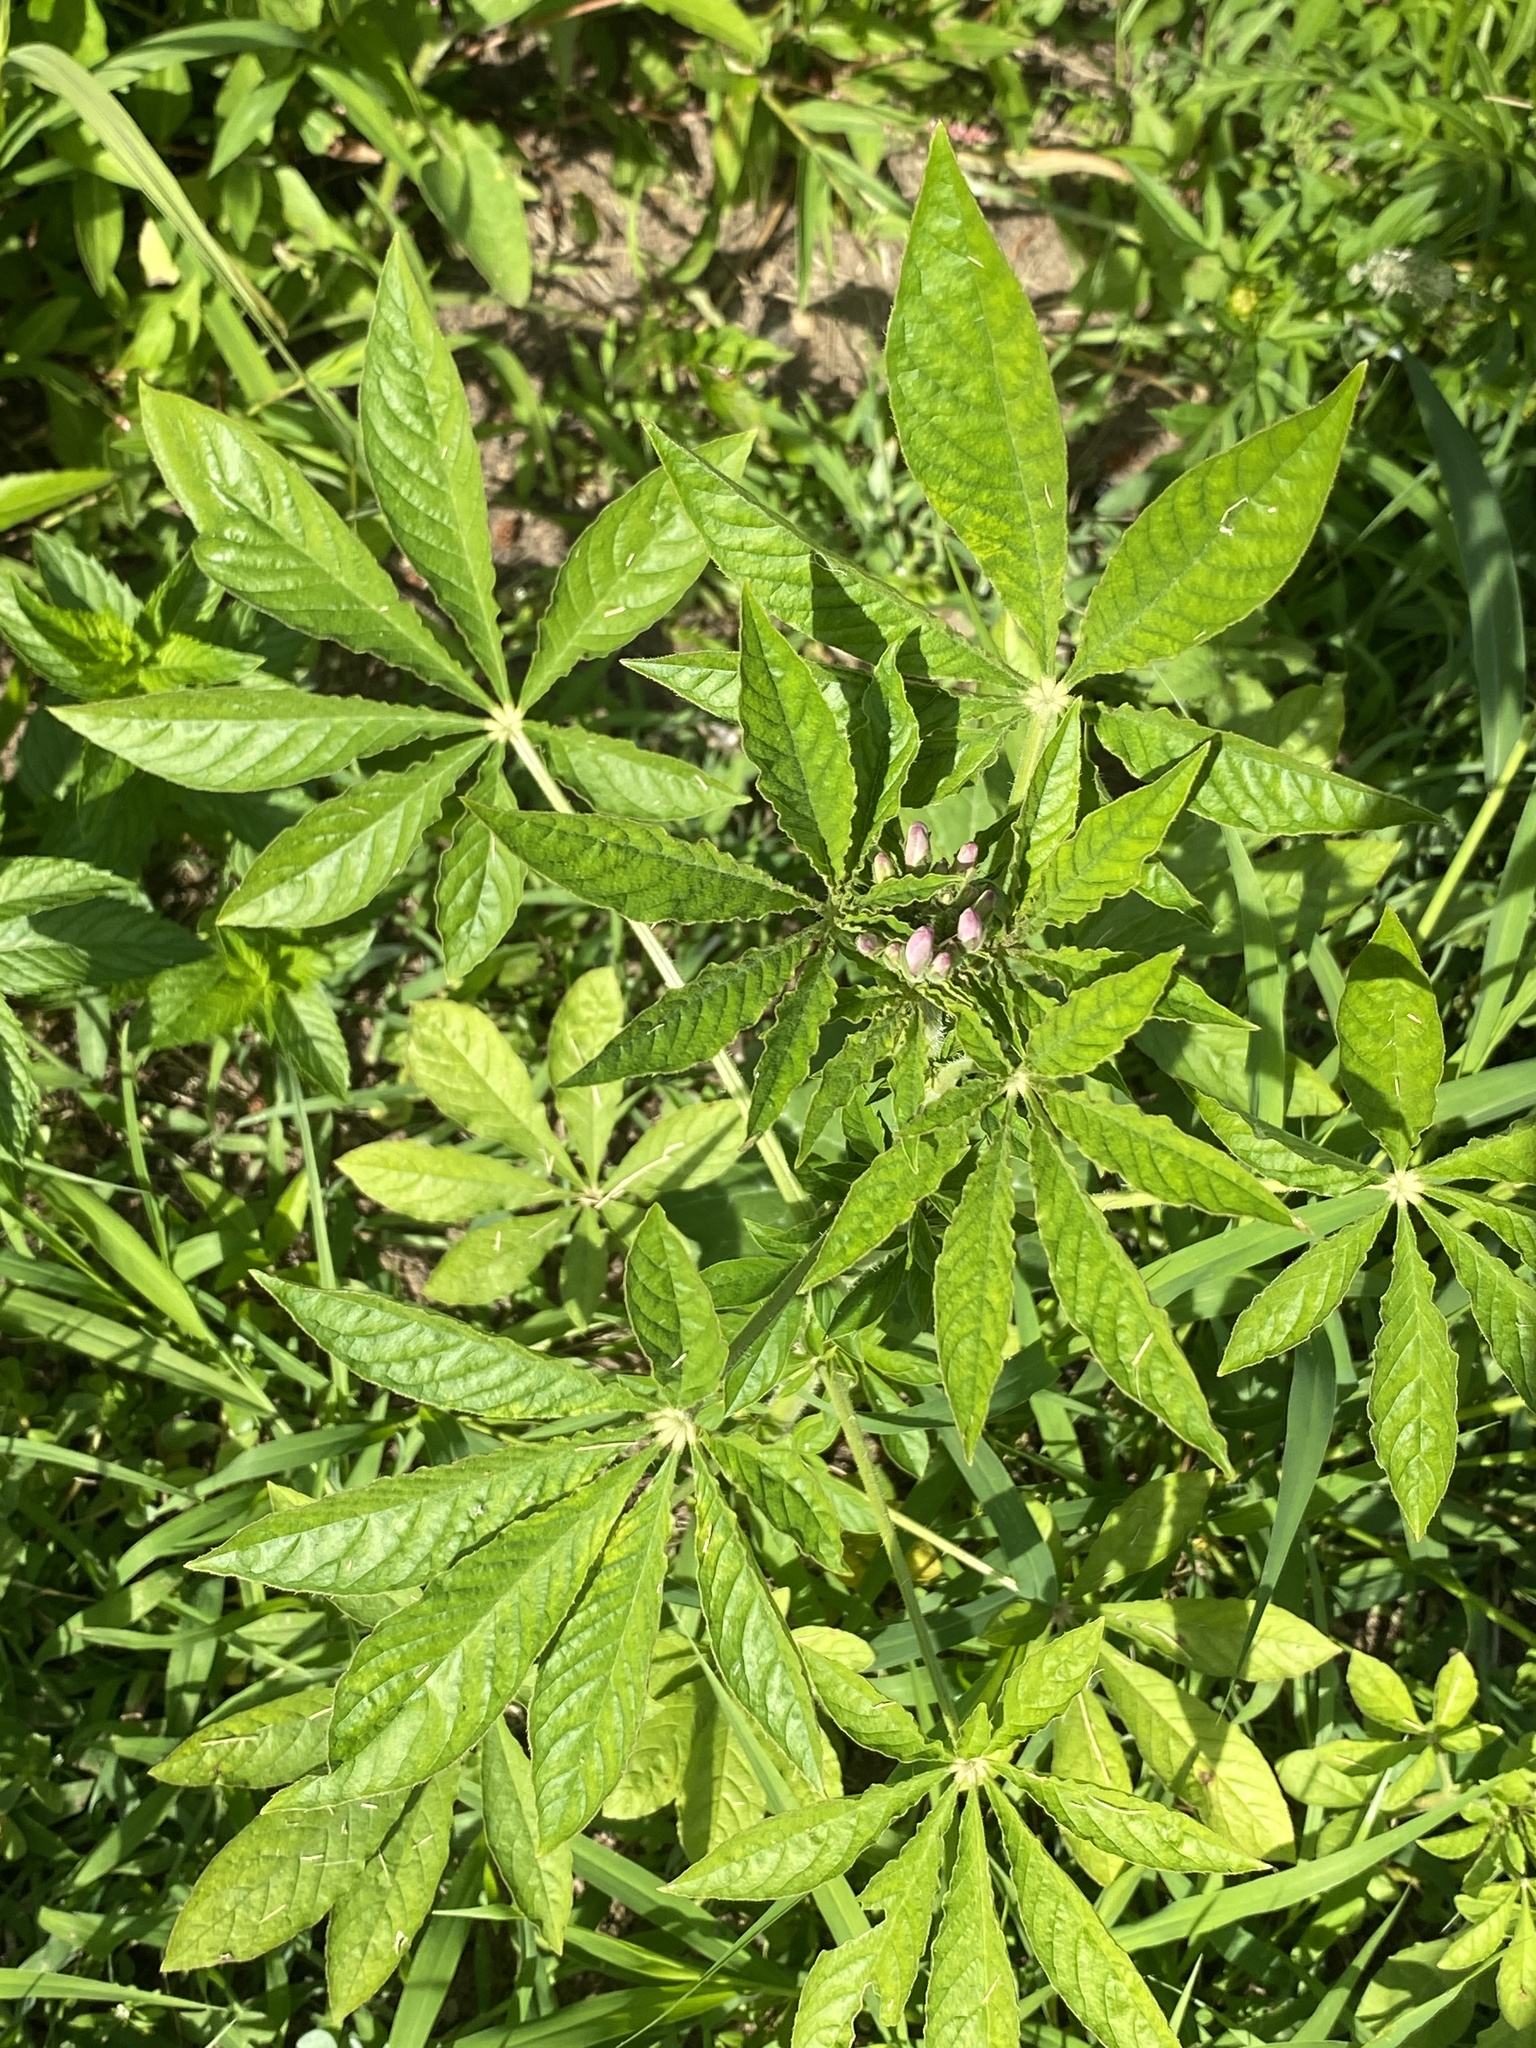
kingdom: Plantae
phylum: Tracheophyta
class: Magnoliopsida
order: Brassicales
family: Cleomaceae
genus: Tarenaya
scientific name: Tarenaya houtteana
